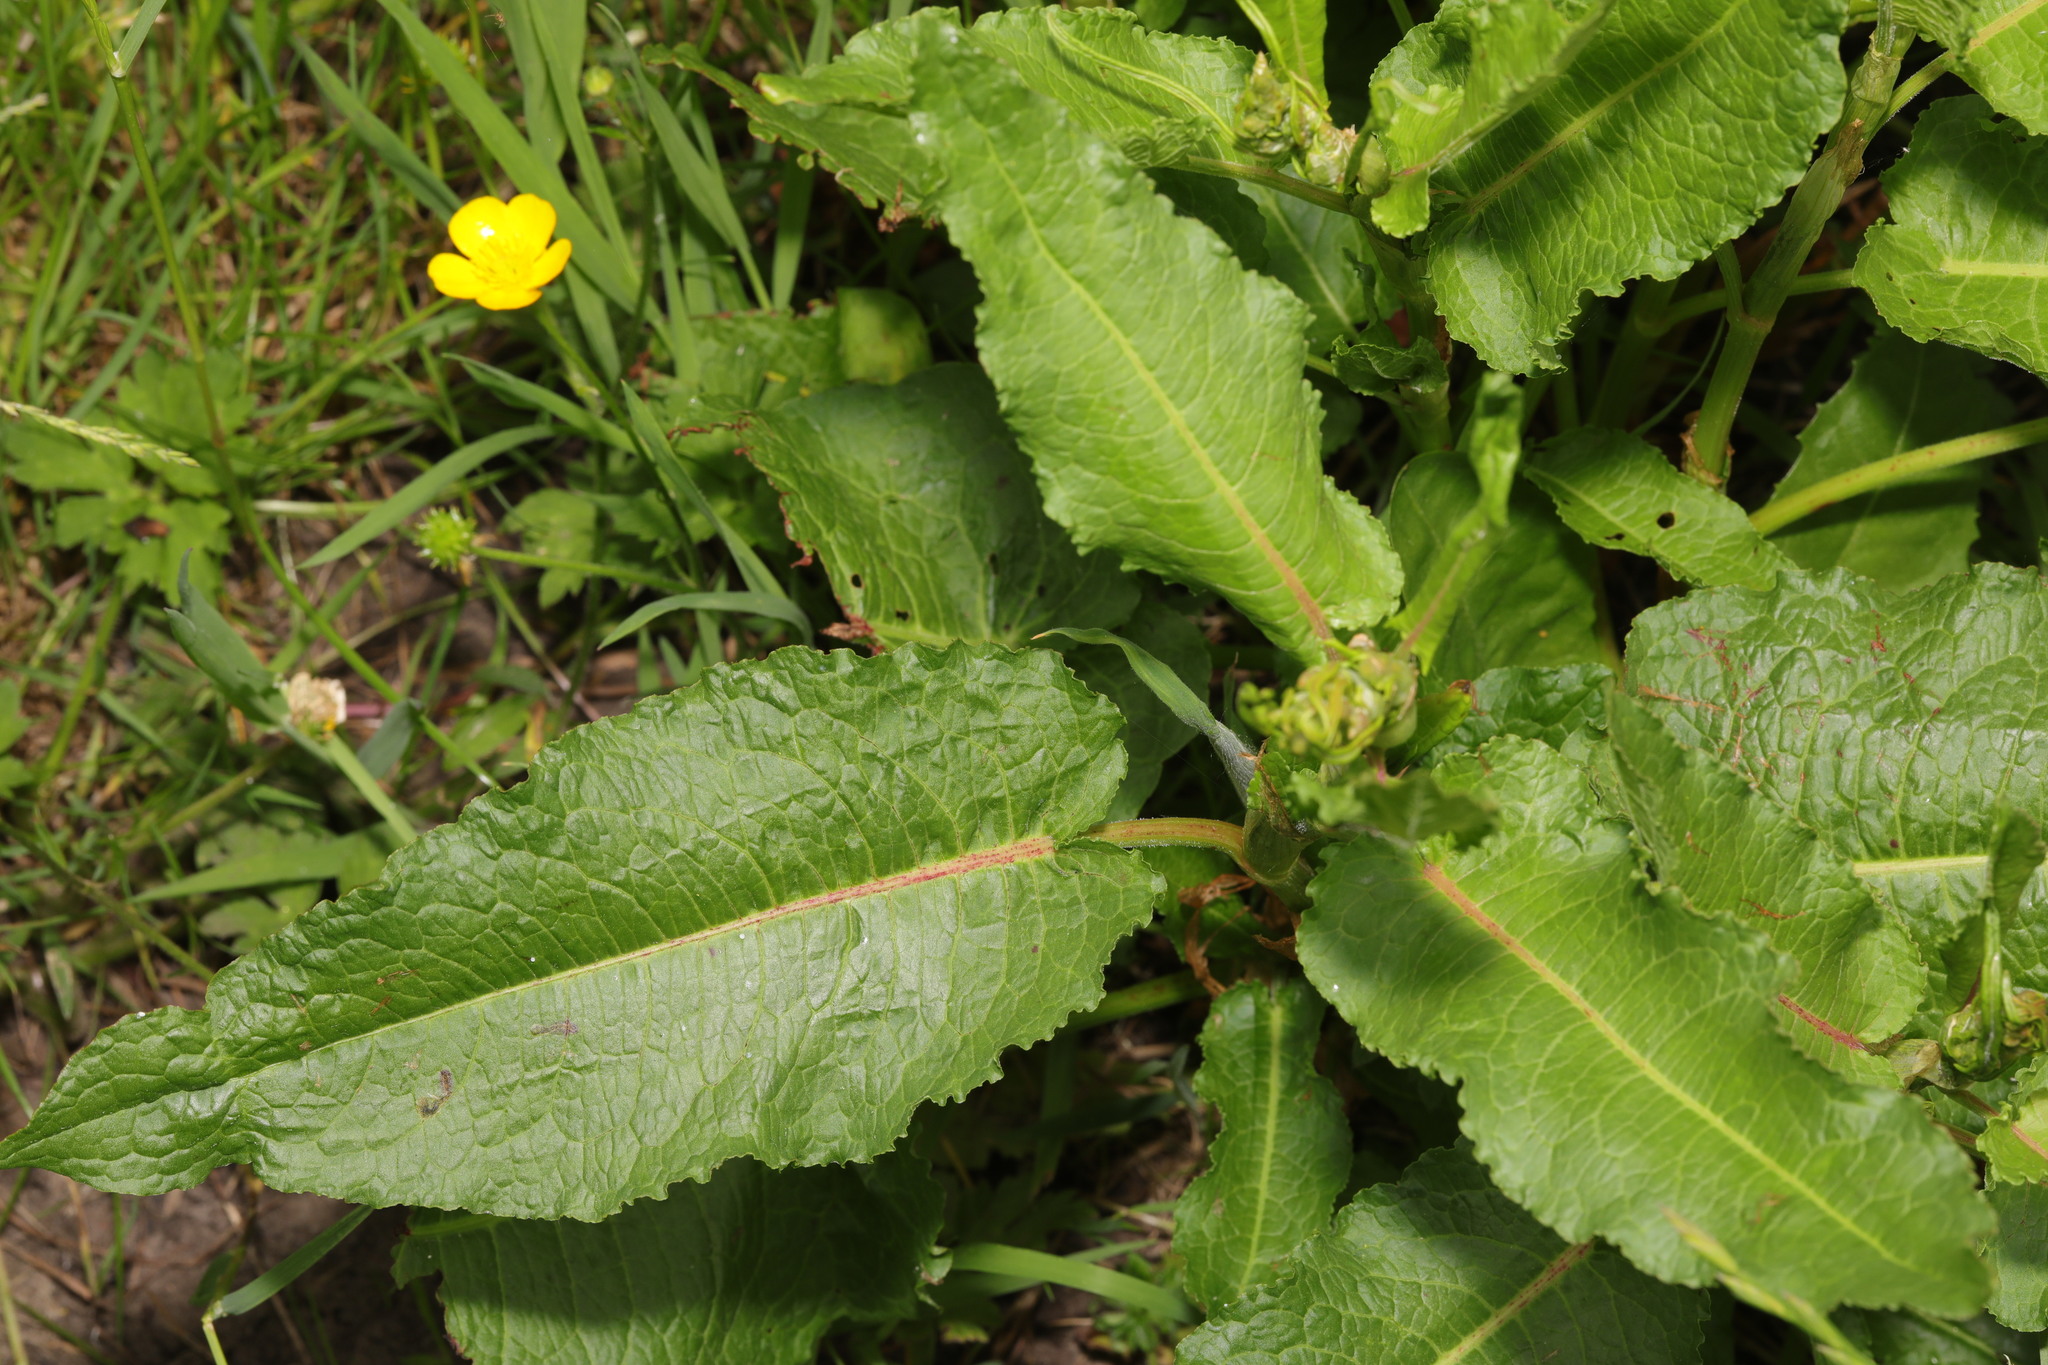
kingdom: Plantae
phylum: Tracheophyta
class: Magnoliopsida
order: Caryophyllales
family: Polygonaceae
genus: Rumex
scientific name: Rumex obtusifolius
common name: Bitter dock
